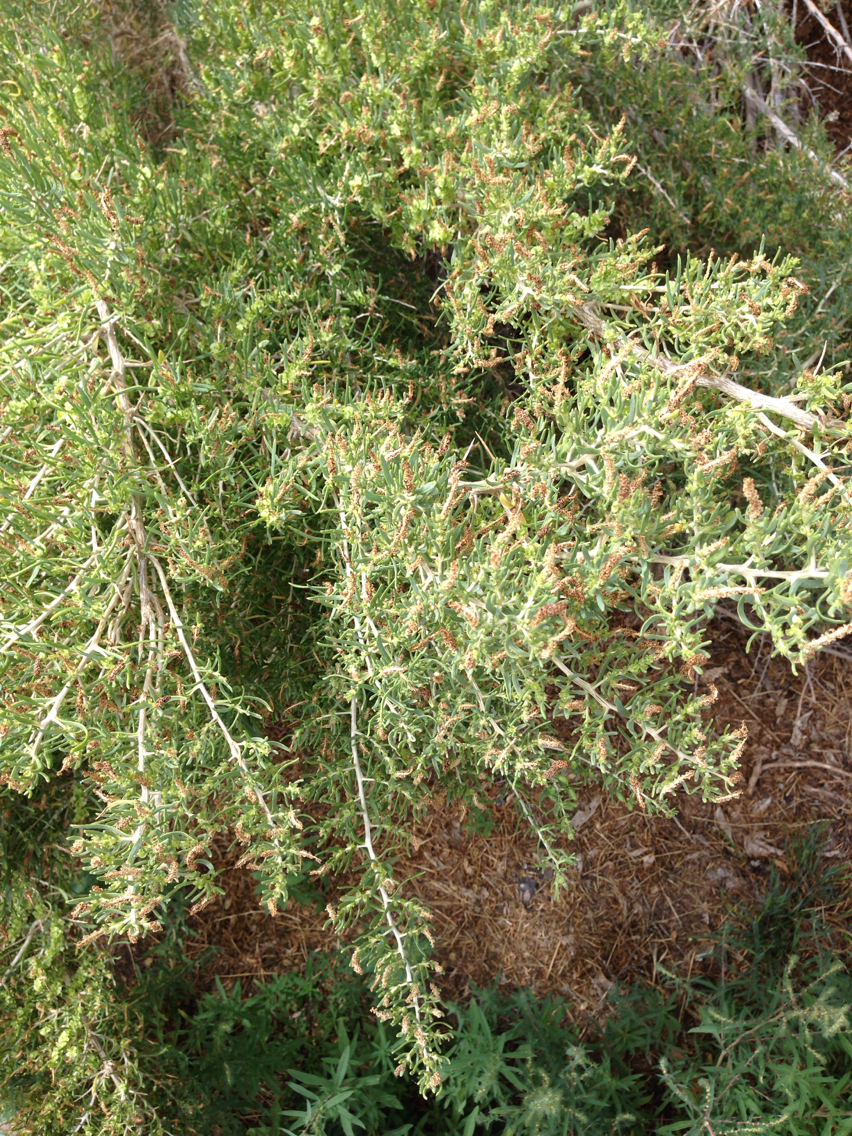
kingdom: Plantae
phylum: Tracheophyta
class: Magnoliopsida
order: Caryophyllales
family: Sarcobataceae
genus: Sarcobatus
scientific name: Sarcobatus vermiculatus
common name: Greasewood
